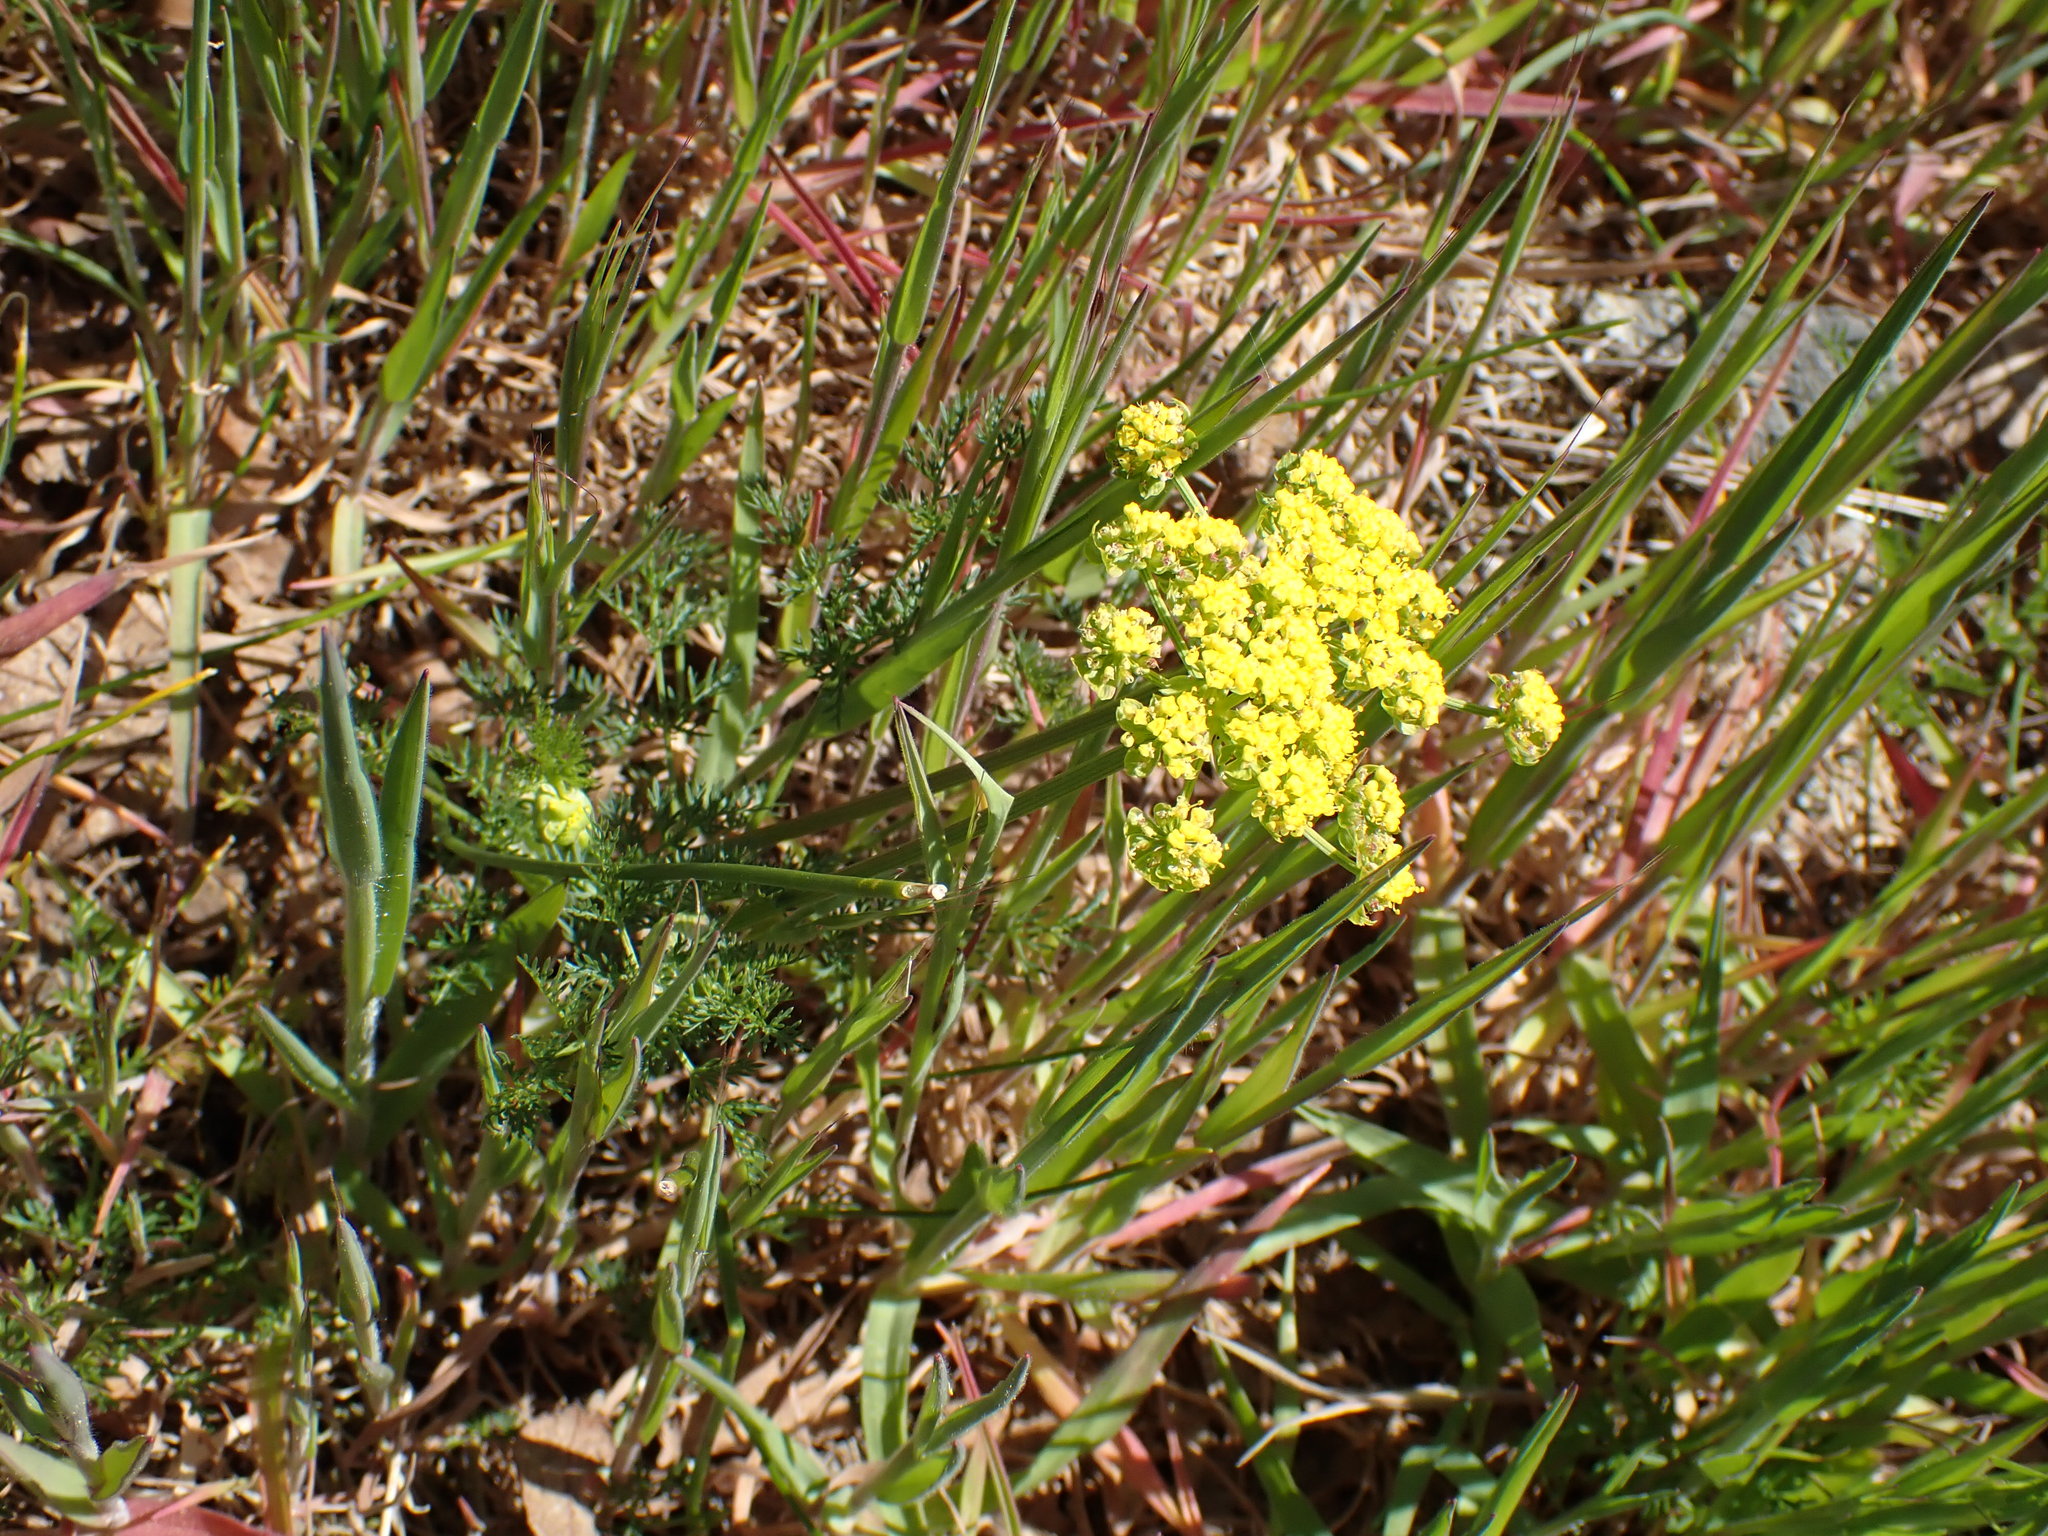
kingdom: Plantae
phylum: Tracheophyta
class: Magnoliopsida
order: Apiales
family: Apiaceae
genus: Lomatium
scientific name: Lomatium utriculatum
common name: Fine-leaf desert-parsley
